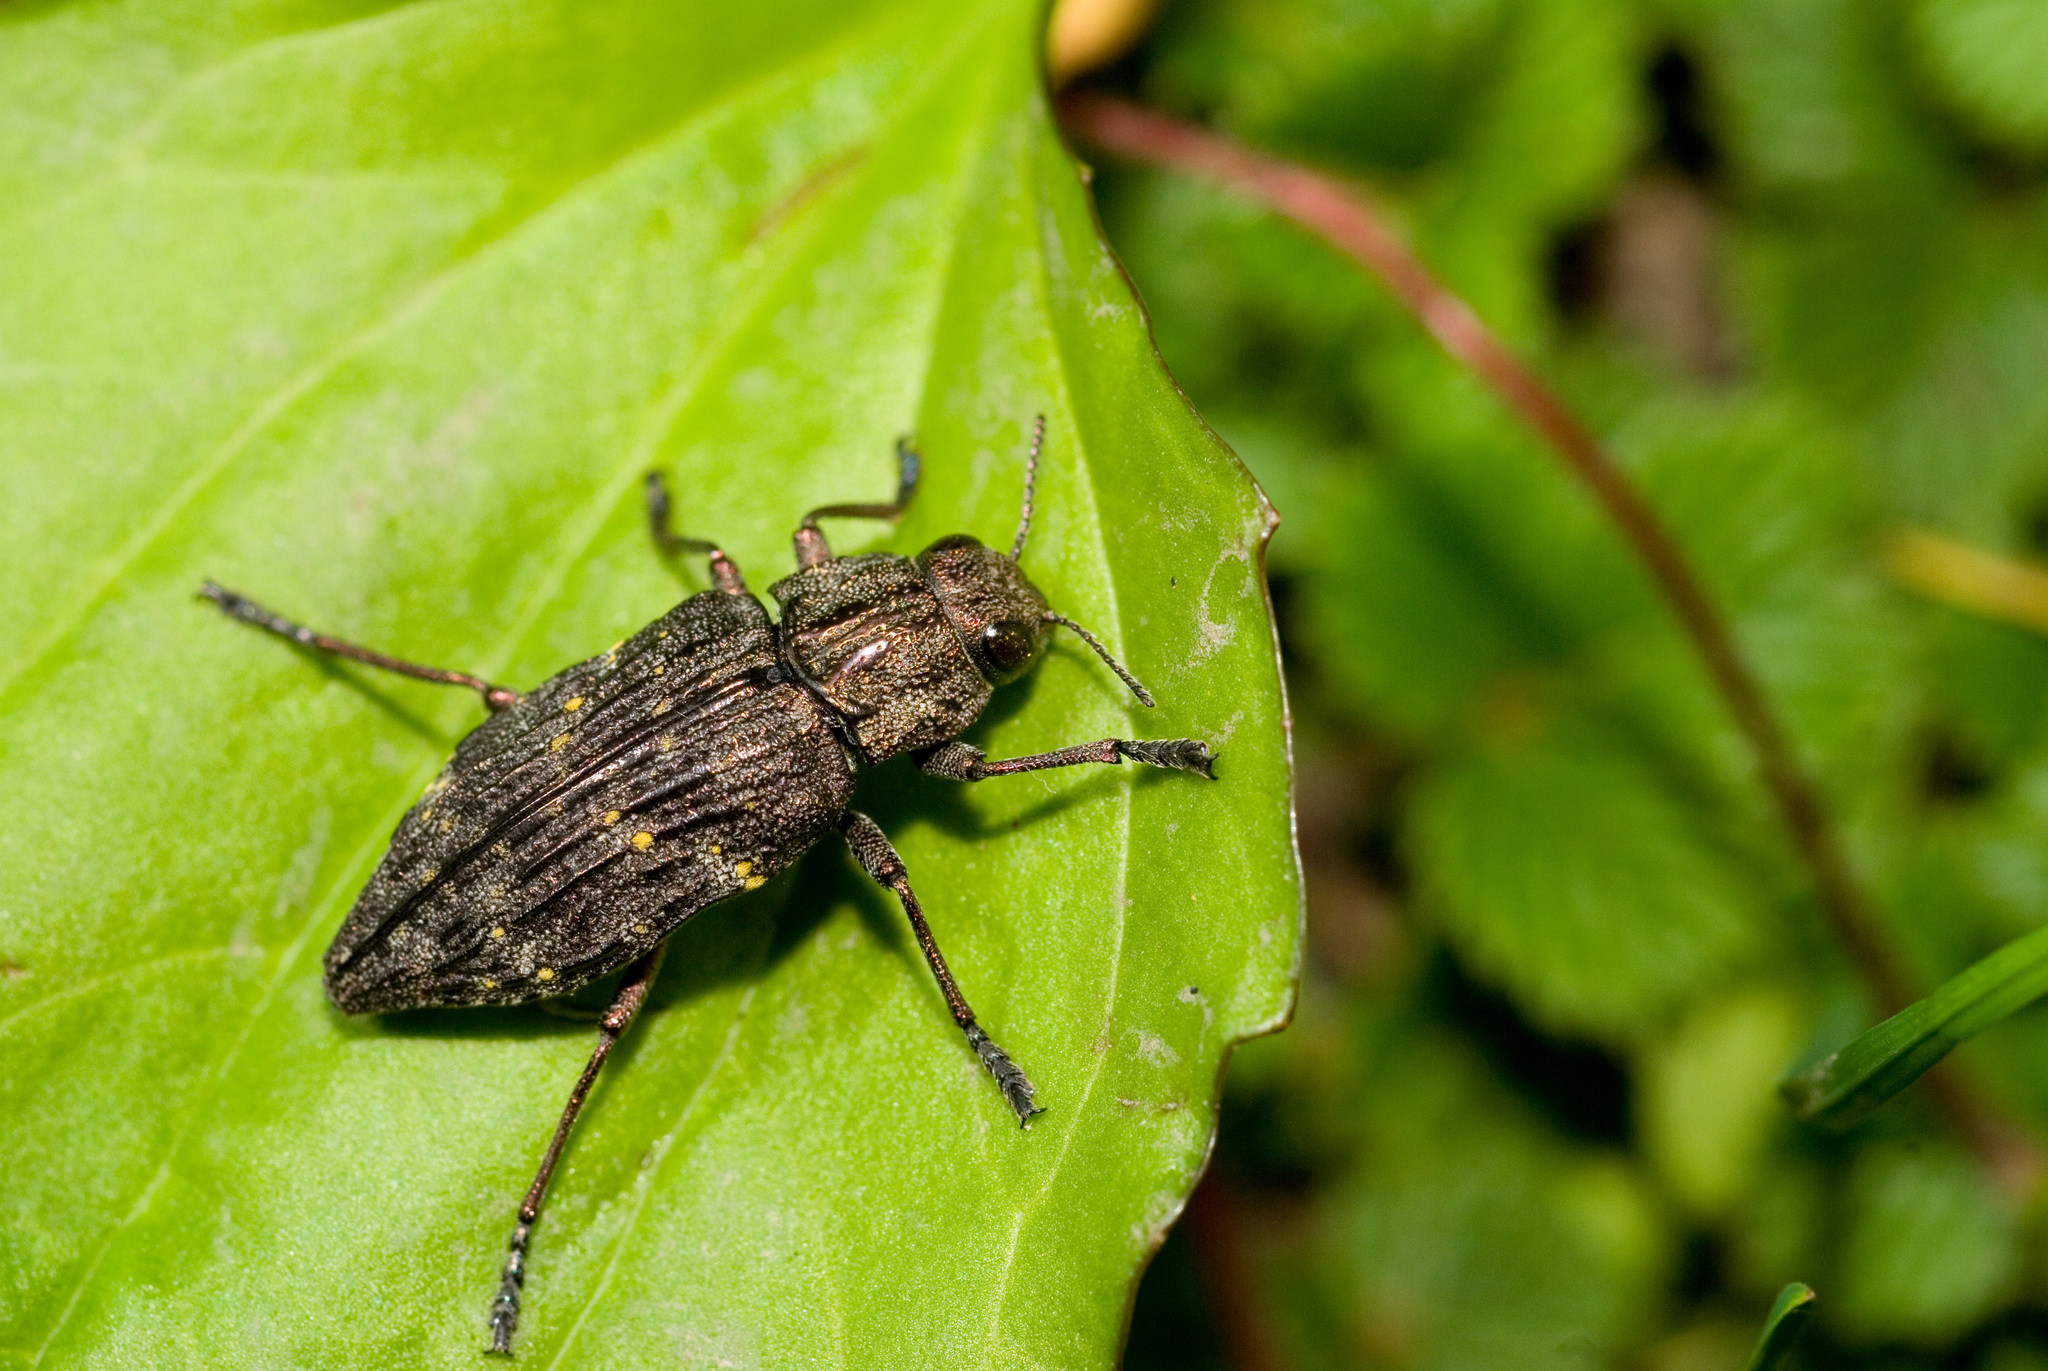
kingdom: Animalia
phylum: Arthropoda
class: Insecta
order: Coleoptera
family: Buprestidae
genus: Dicerca
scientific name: Dicerca kurosawai
